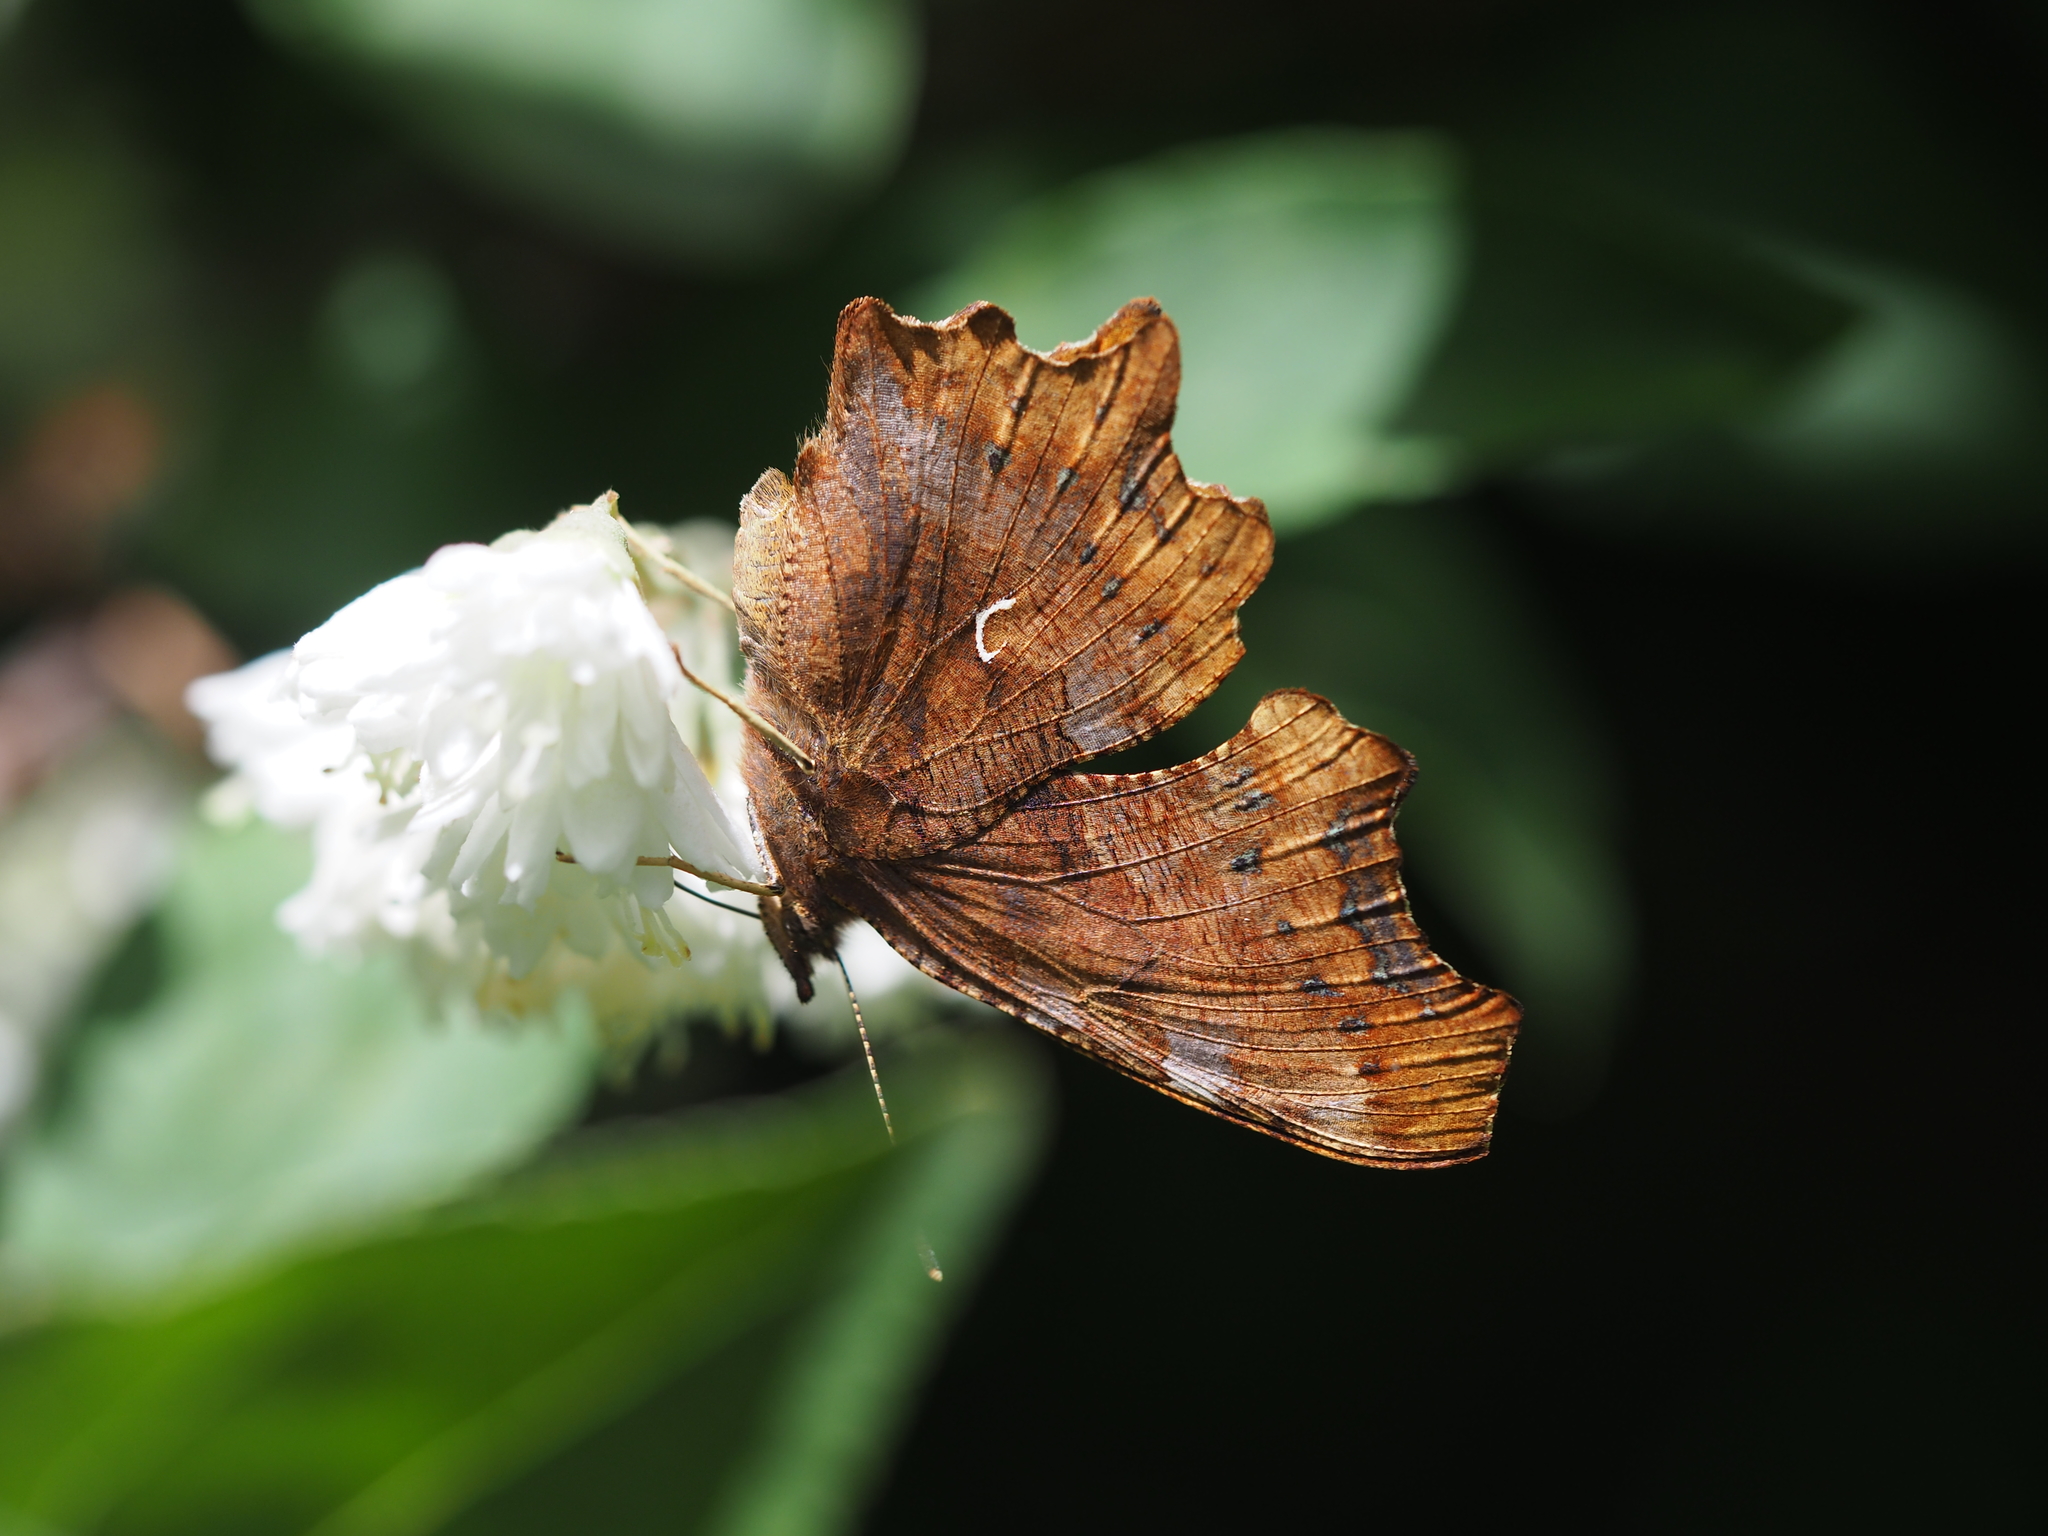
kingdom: Animalia
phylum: Arthropoda
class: Insecta
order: Lepidoptera
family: Nymphalidae
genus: Polygonia
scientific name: Polygonia c-album
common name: Comma
